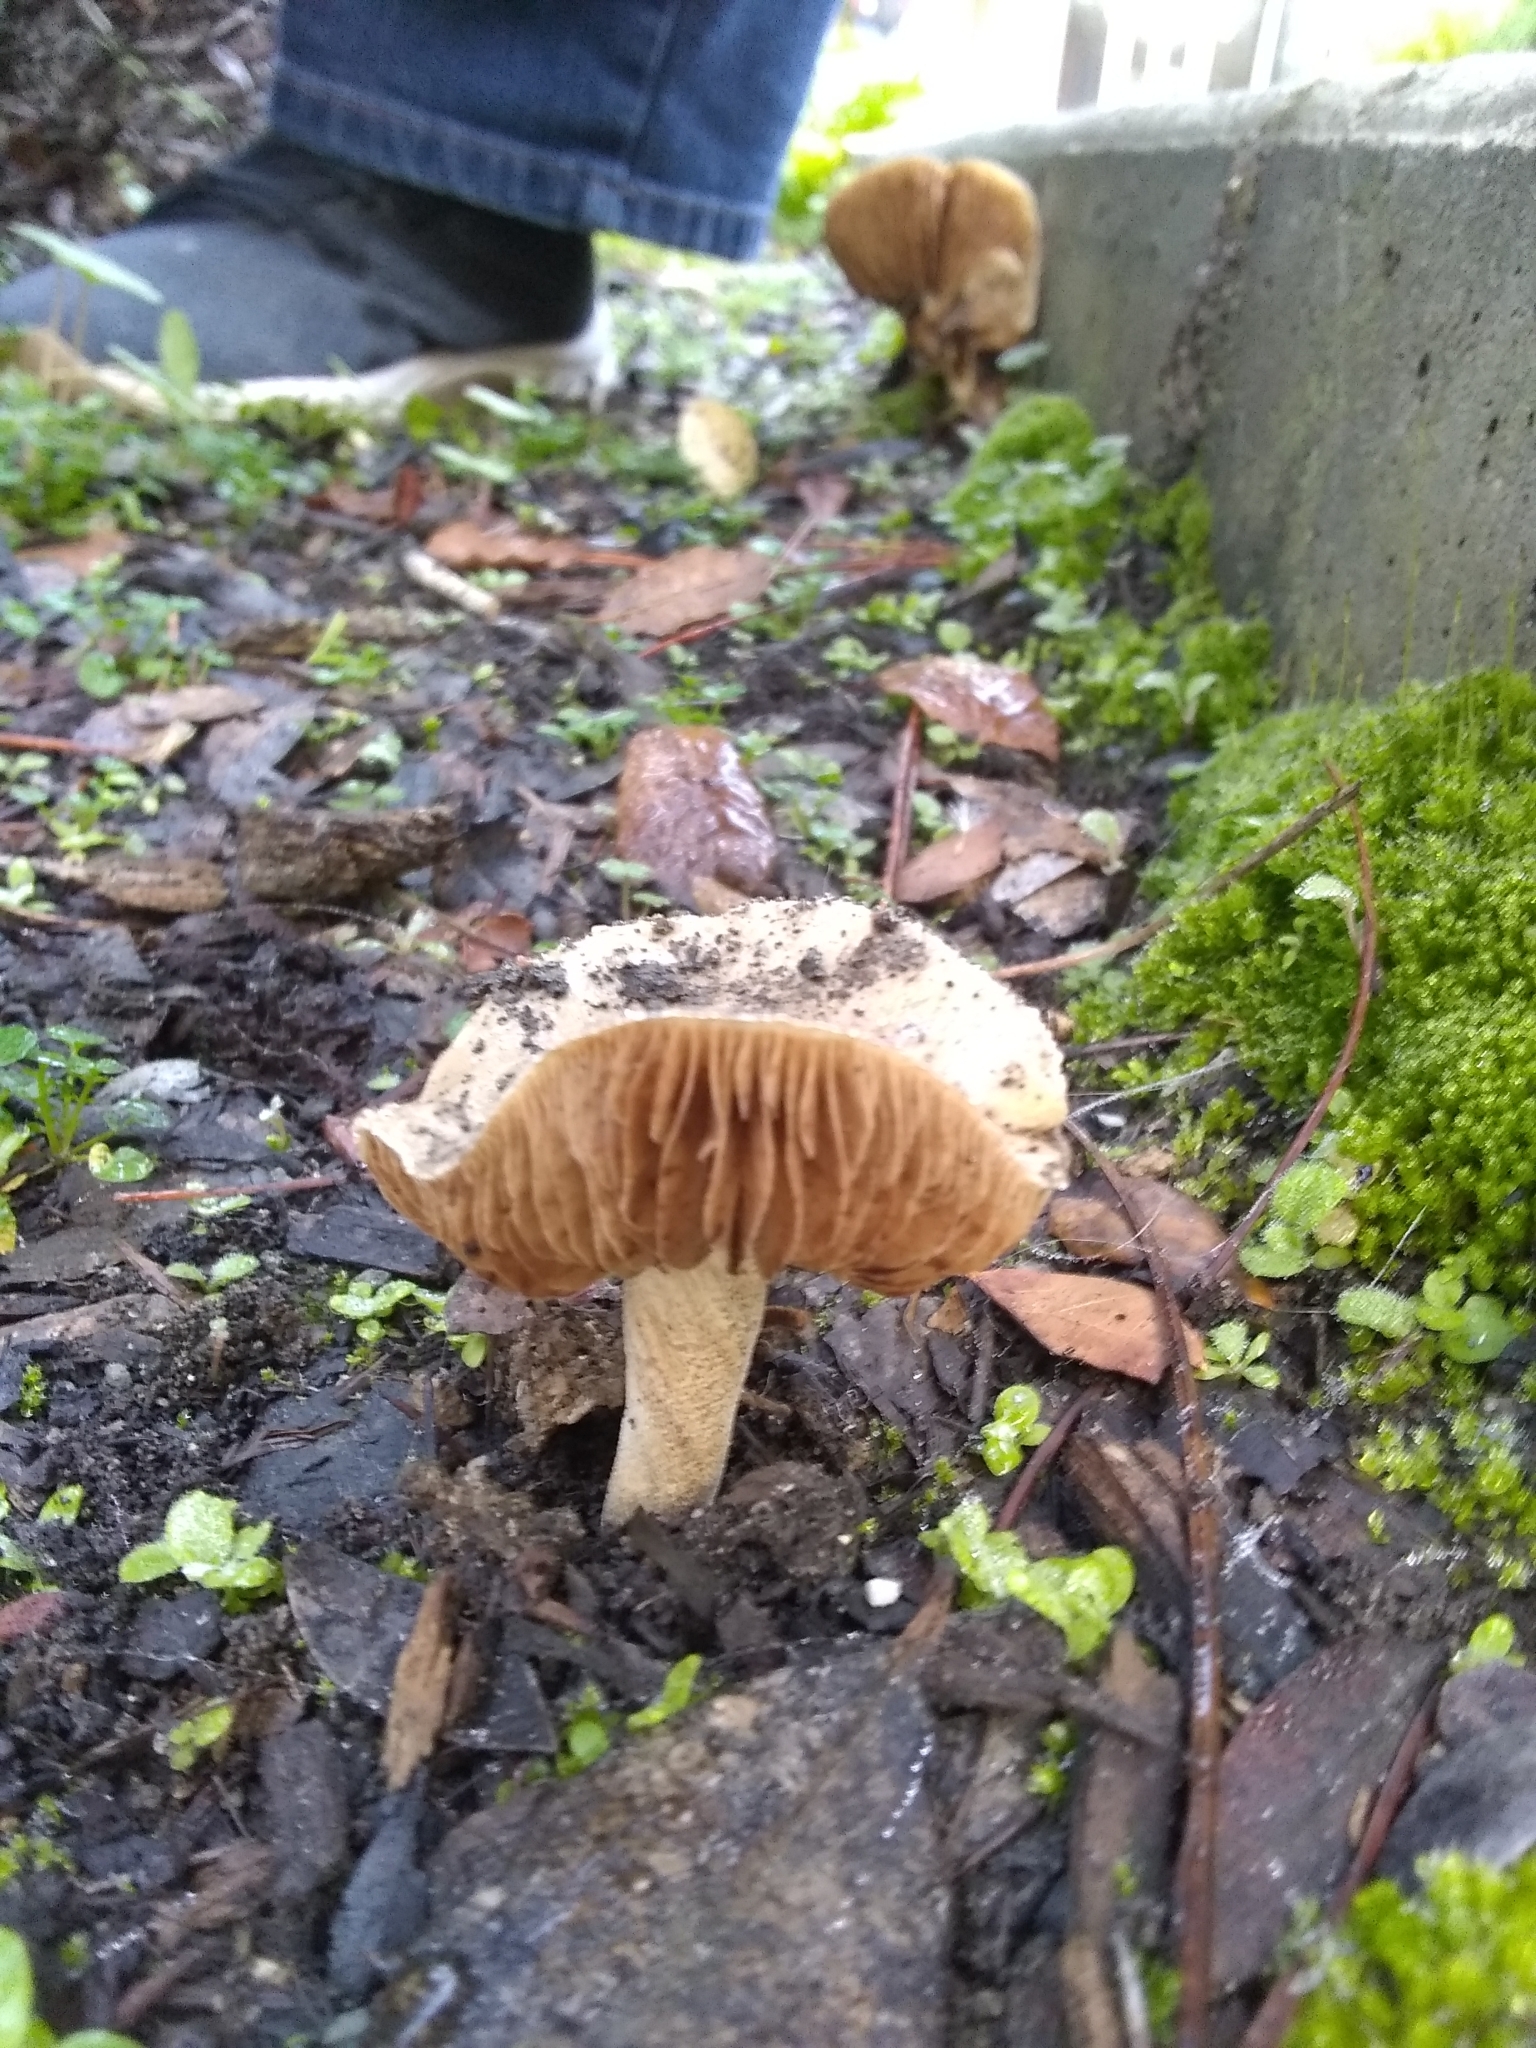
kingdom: Fungi
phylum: Basidiomycota
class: Agaricomycetes
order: Agaricales
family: Hymenogastraceae
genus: Hebeloma
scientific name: Hebeloma crustuliniforme
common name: Poison pie
